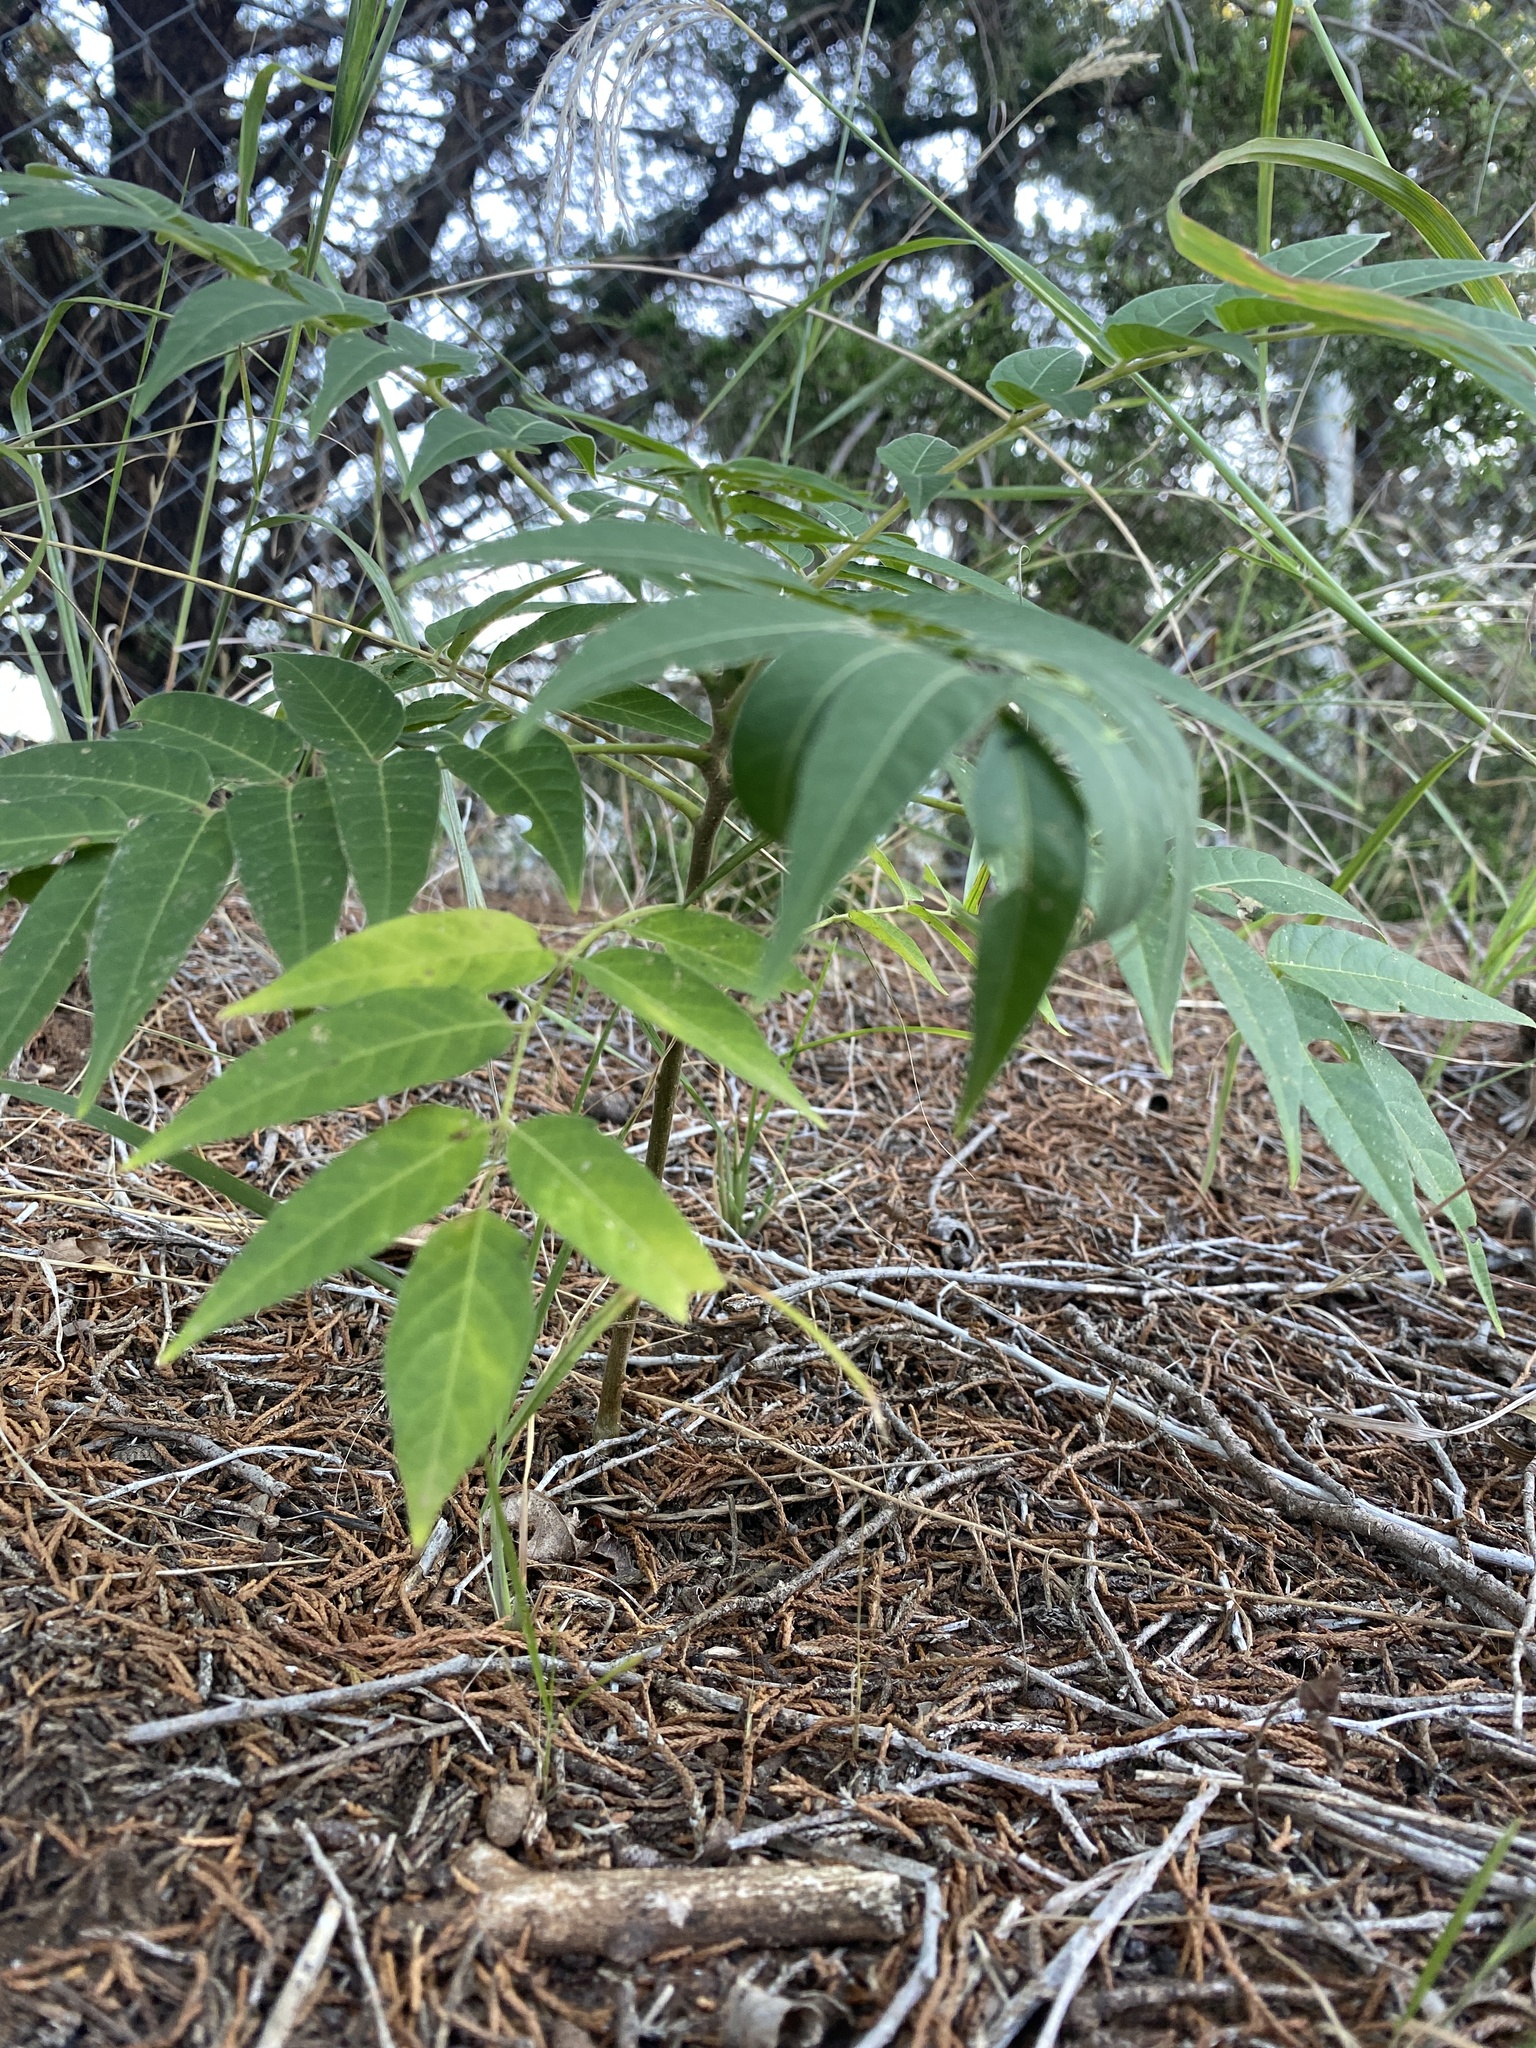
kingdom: Plantae
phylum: Tracheophyta
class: Magnoliopsida
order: Sapindales
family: Simaroubaceae
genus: Ailanthus
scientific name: Ailanthus altissima
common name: Tree-of-heaven
